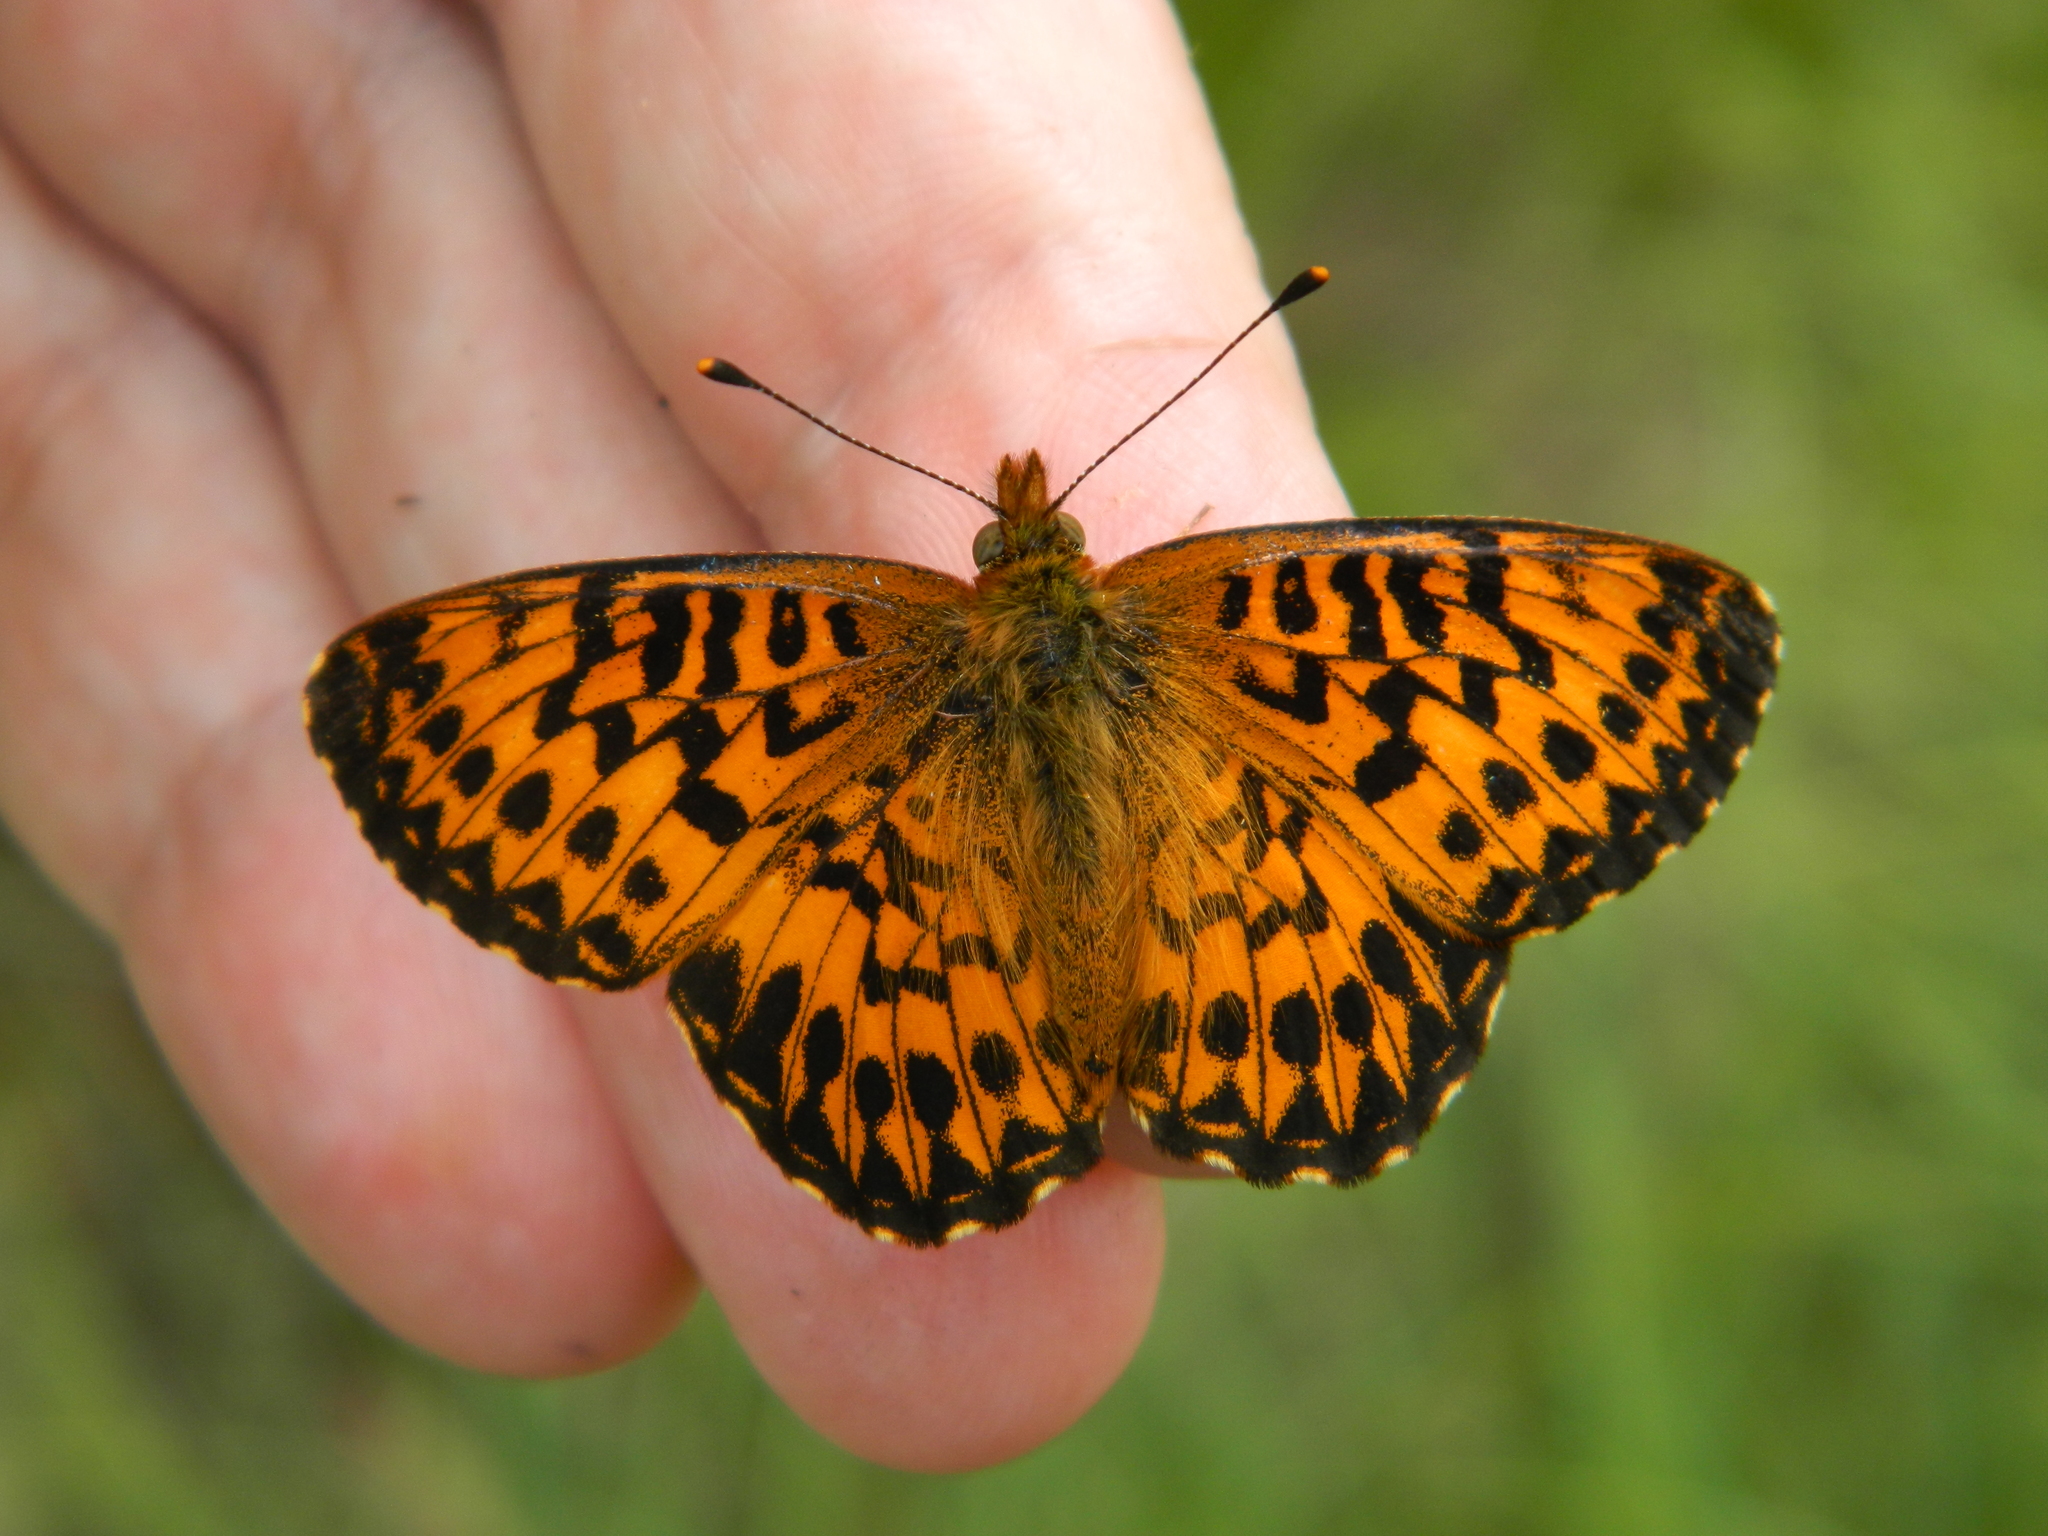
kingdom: Animalia
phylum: Arthropoda
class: Insecta
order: Lepidoptera
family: Nymphalidae
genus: Clossiana
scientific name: Clossiana chariclea
